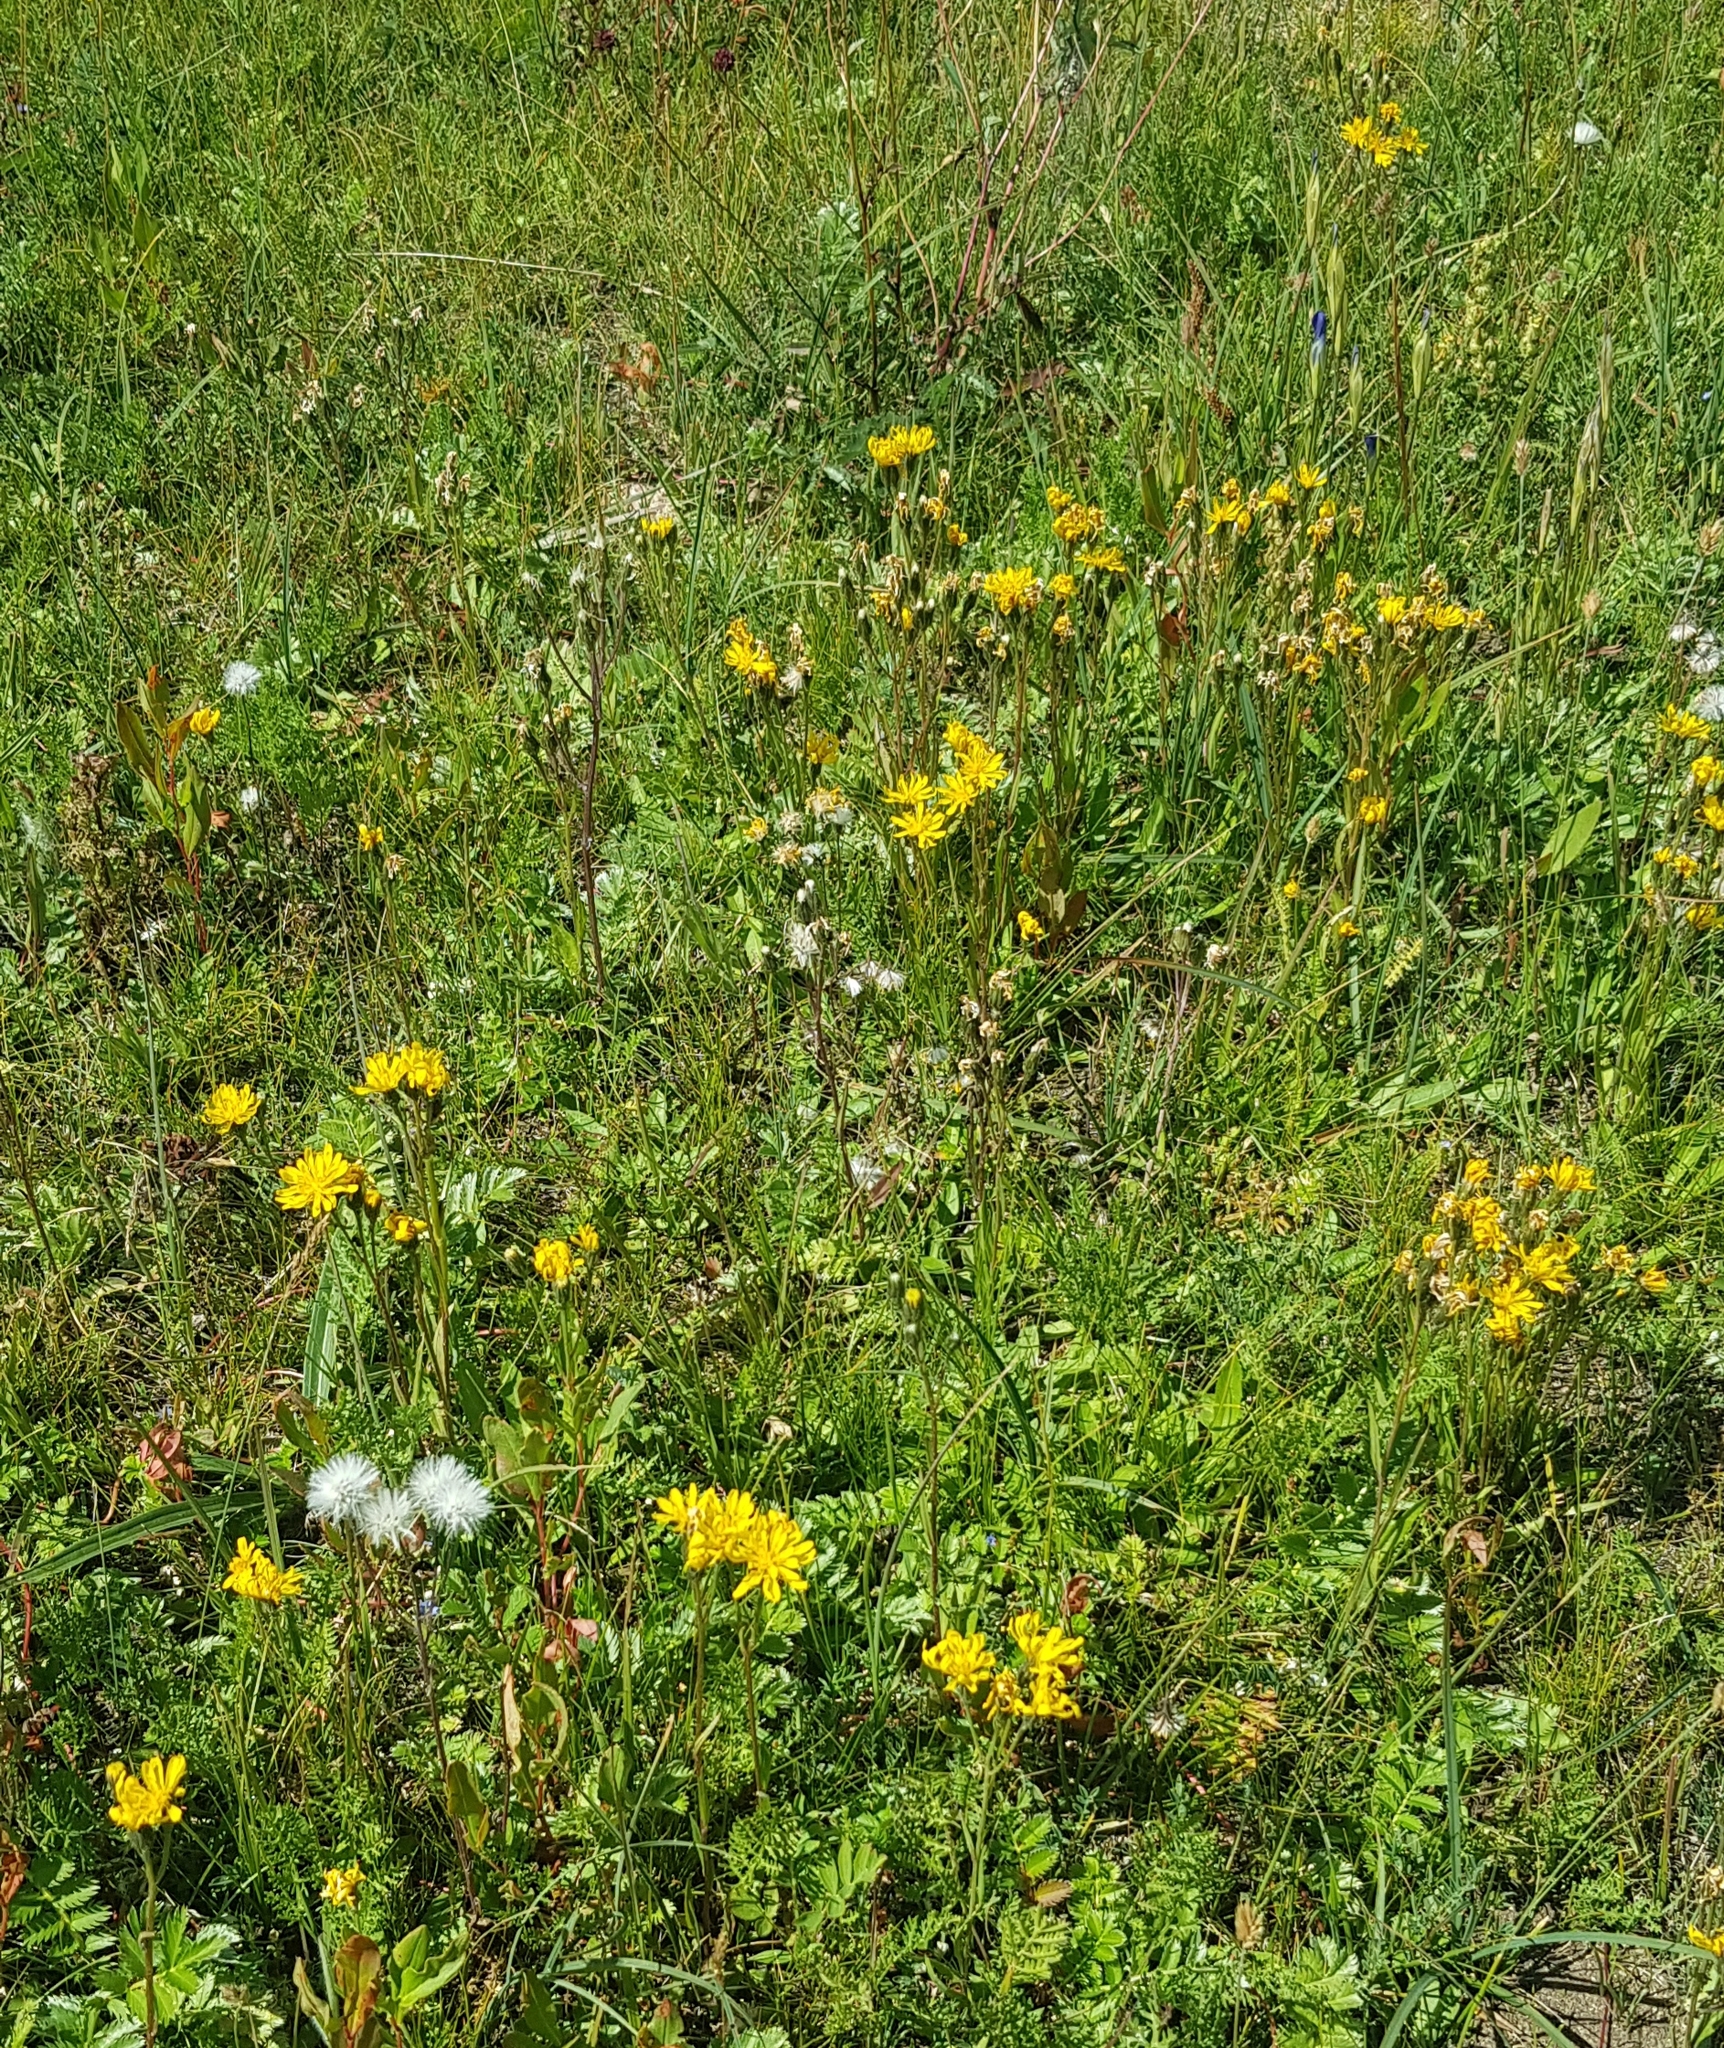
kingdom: Plantae
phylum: Tracheophyta
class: Magnoliopsida
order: Asterales
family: Asteraceae
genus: Tephroseris
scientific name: Tephroseris integrifolia
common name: Field fleawort
